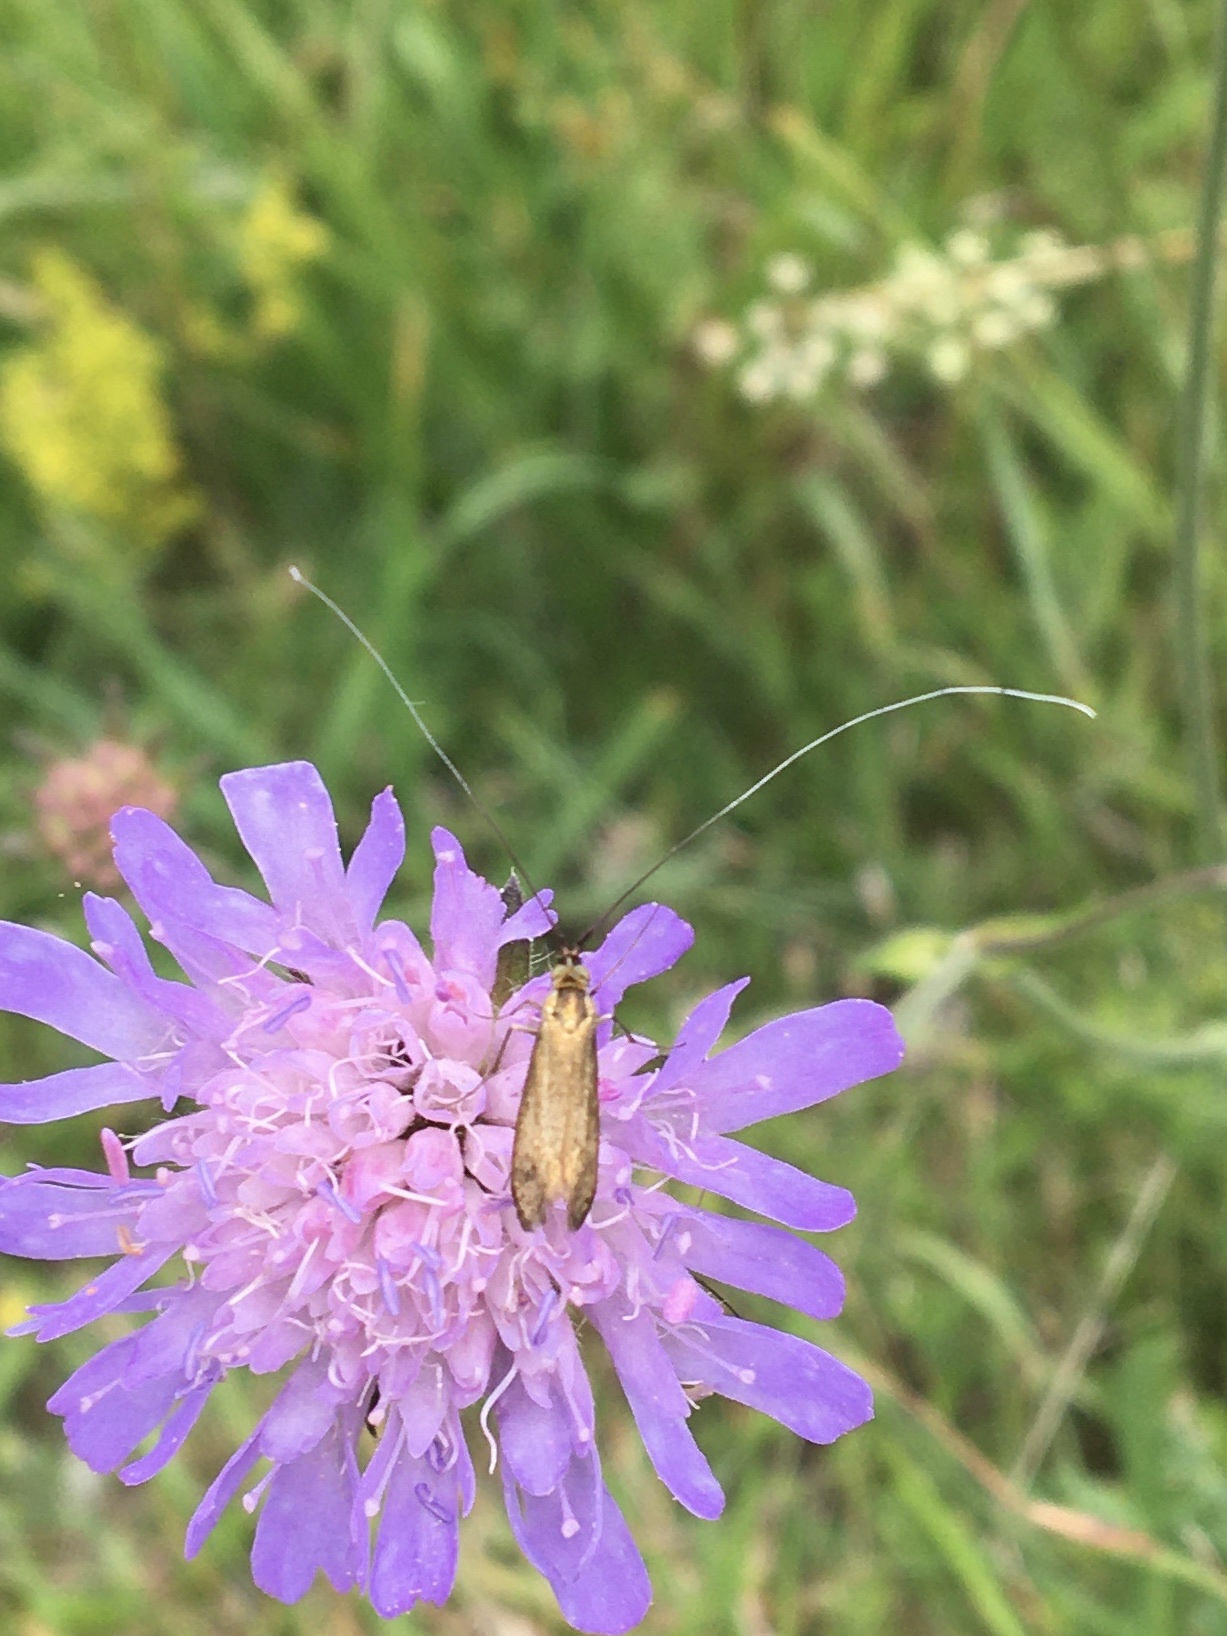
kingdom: Animalia
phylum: Arthropoda
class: Insecta
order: Lepidoptera
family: Adelidae
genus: Nemophora
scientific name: Nemophora metallica
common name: Brassy long-horn
